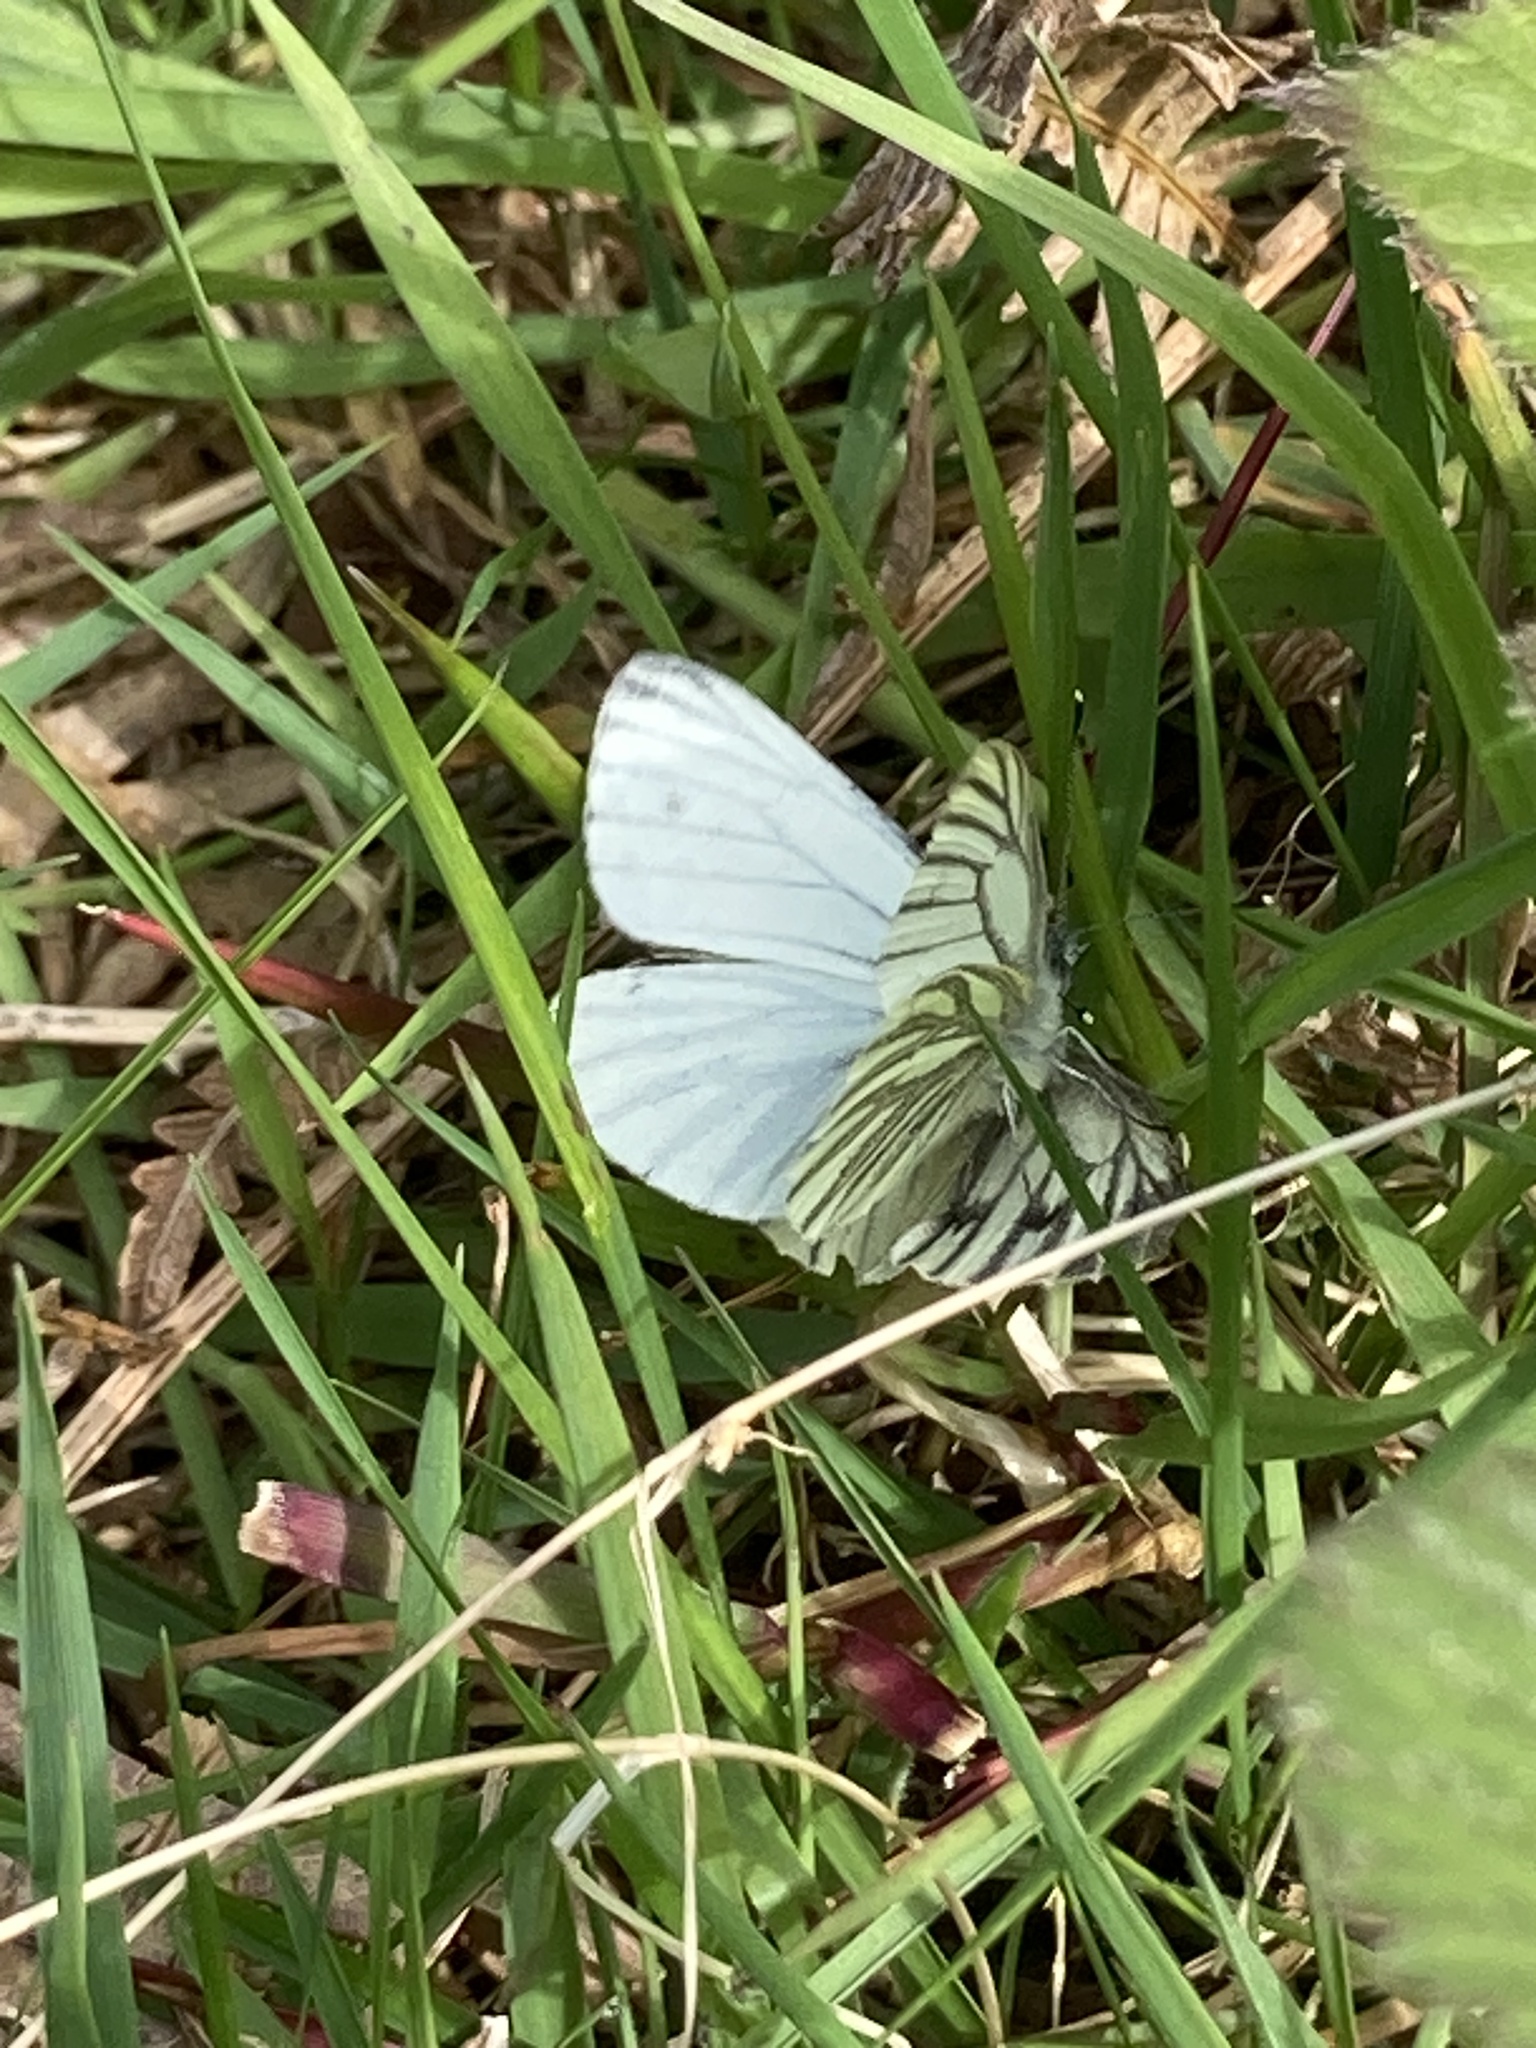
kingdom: Animalia
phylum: Arthropoda
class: Insecta
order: Lepidoptera
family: Pieridae
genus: Pieris
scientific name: Pieris napi
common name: Green-veined white
